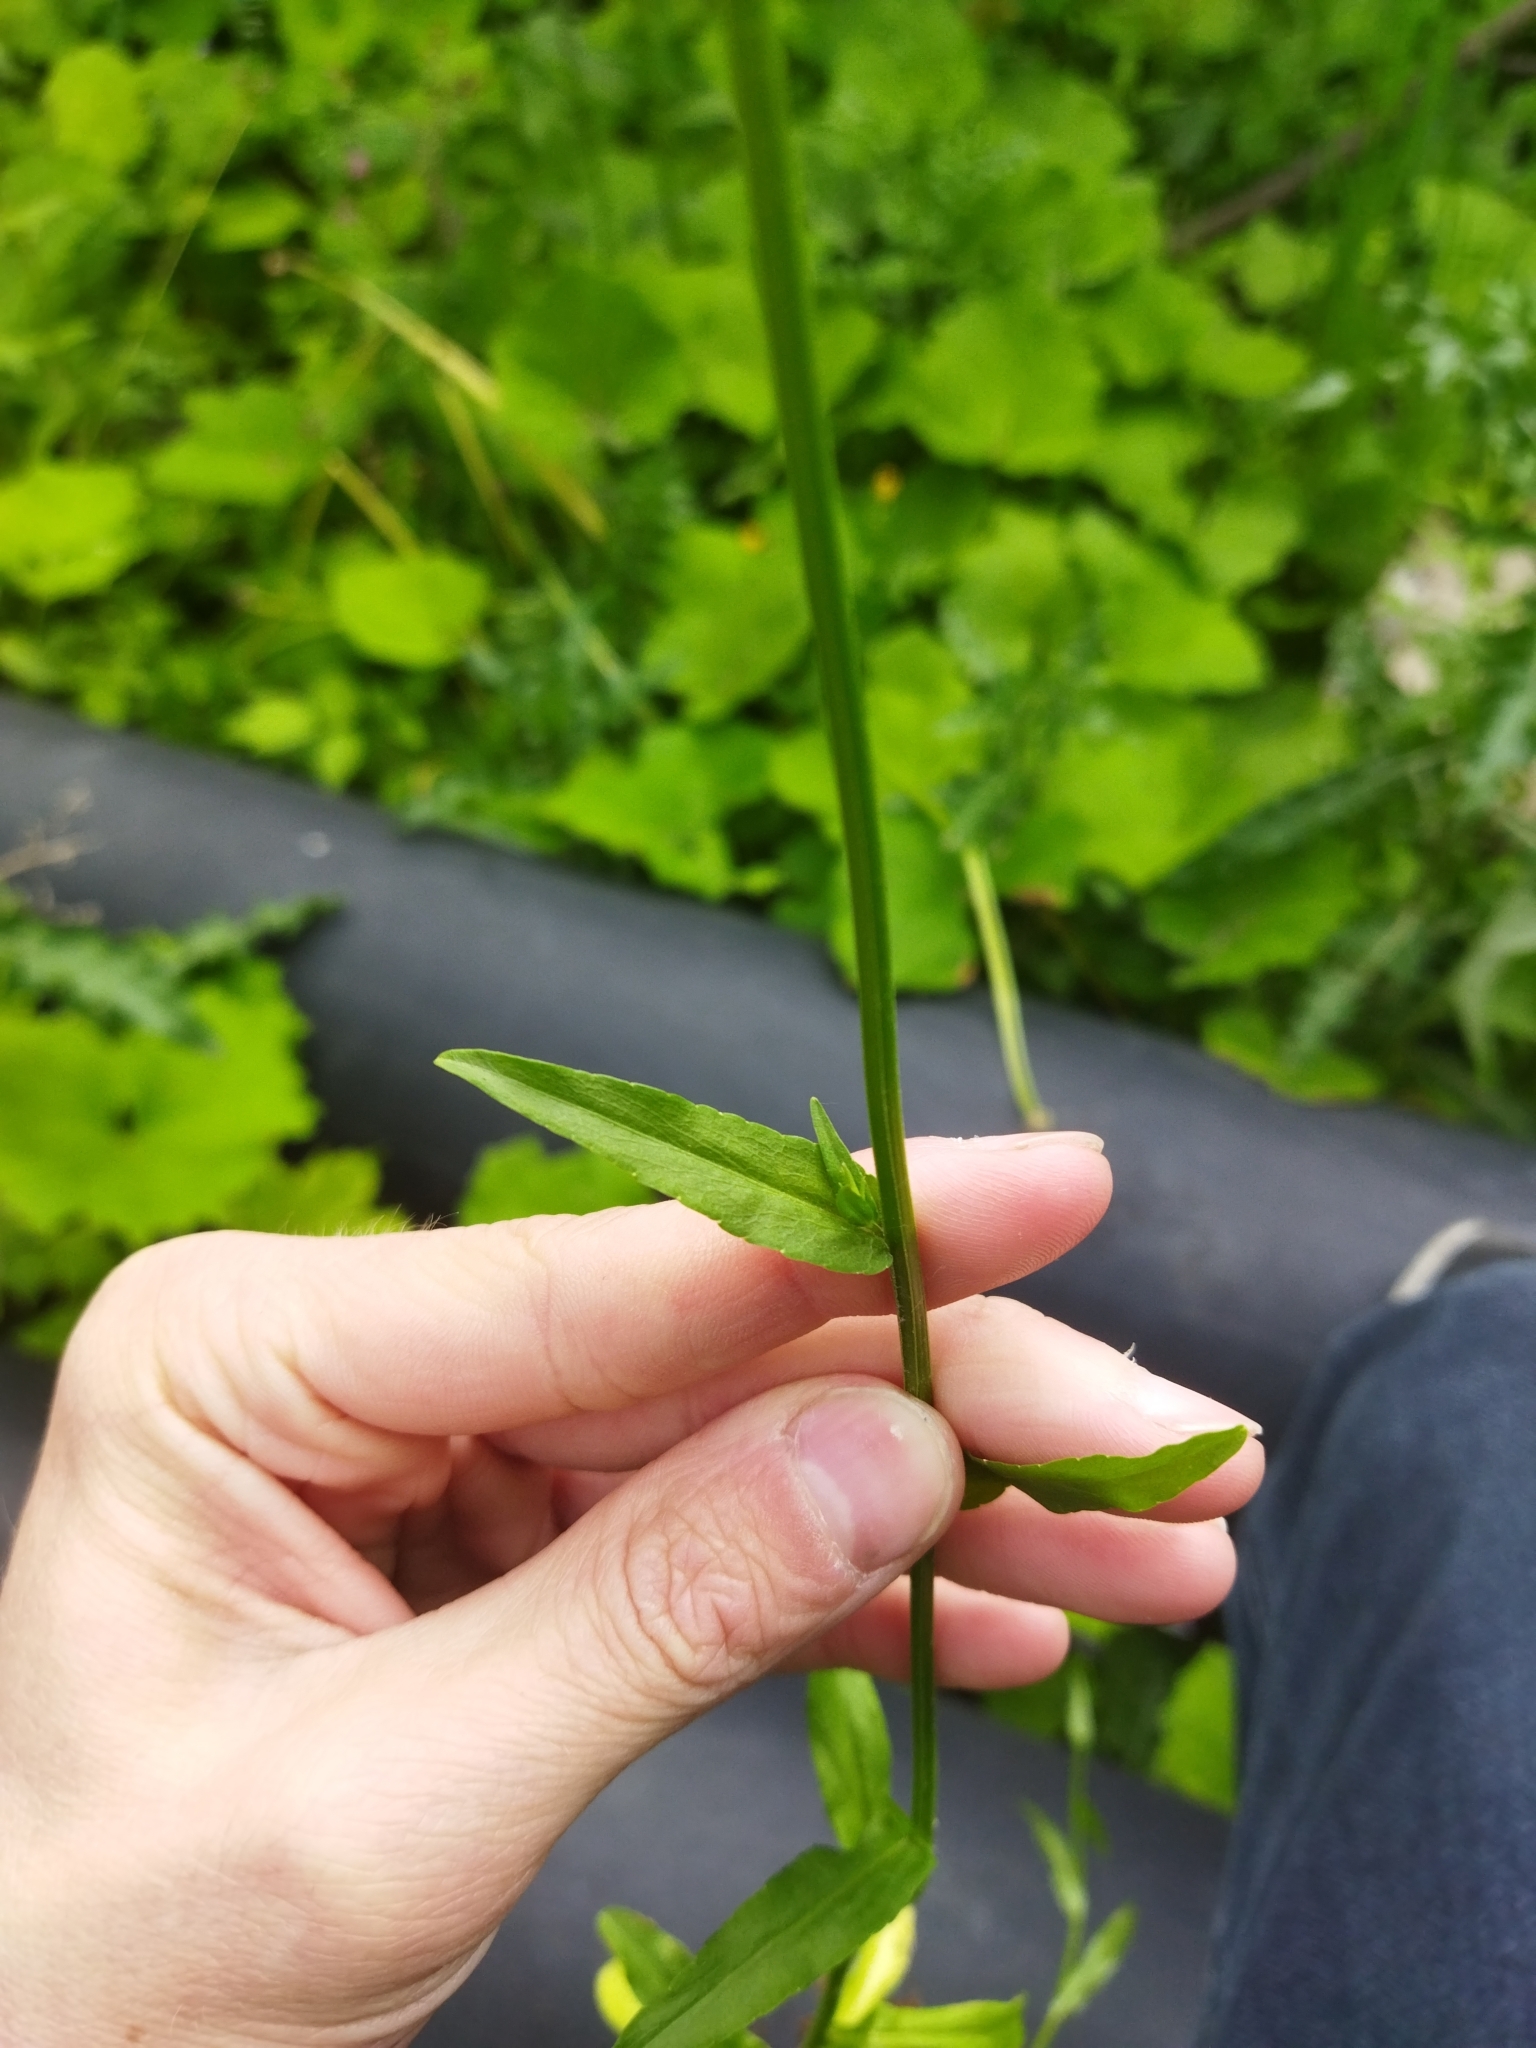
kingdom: Plantae
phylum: Tracheophyta
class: Magnoliopsida
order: Asterales
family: Campanulaceae
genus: Campanula
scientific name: Campanula patula
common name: Spreading bellflower
